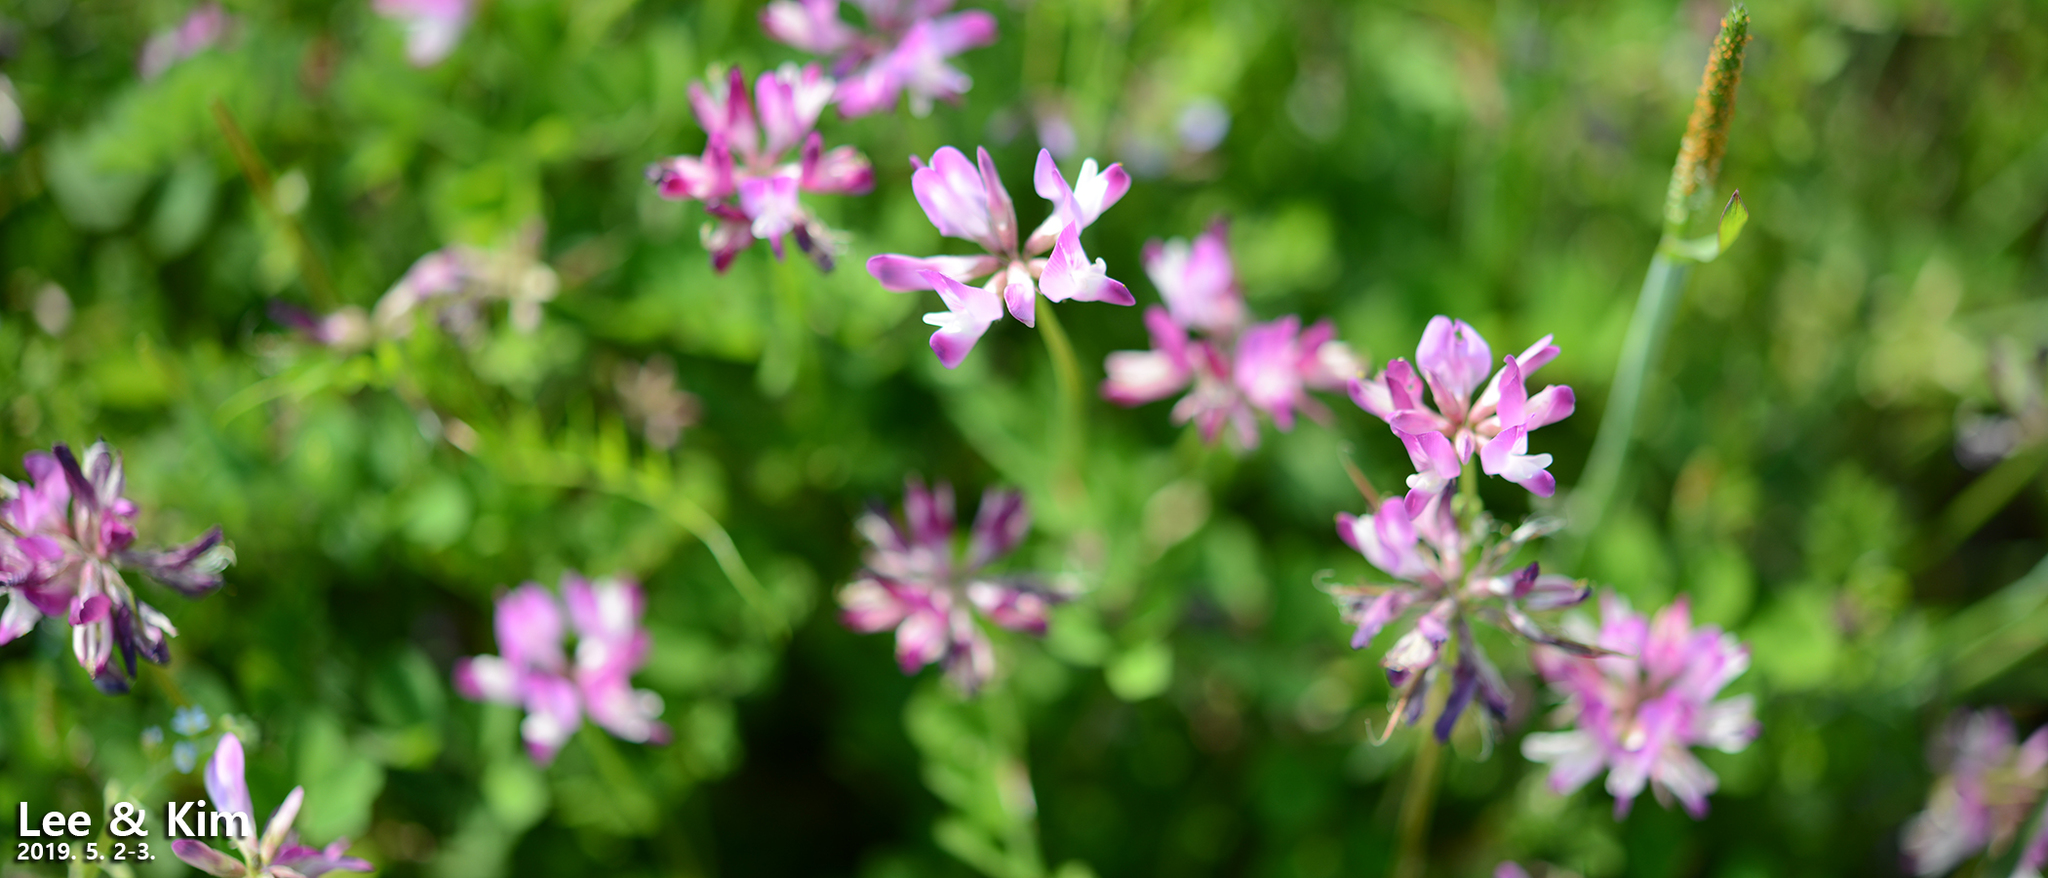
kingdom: Plantae
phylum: Tracheophyta
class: Magnoliopsida
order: Fabales
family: Fabaceae
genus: Astragalus
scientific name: Astragalus sinicus
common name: Chinese milk-vetch
